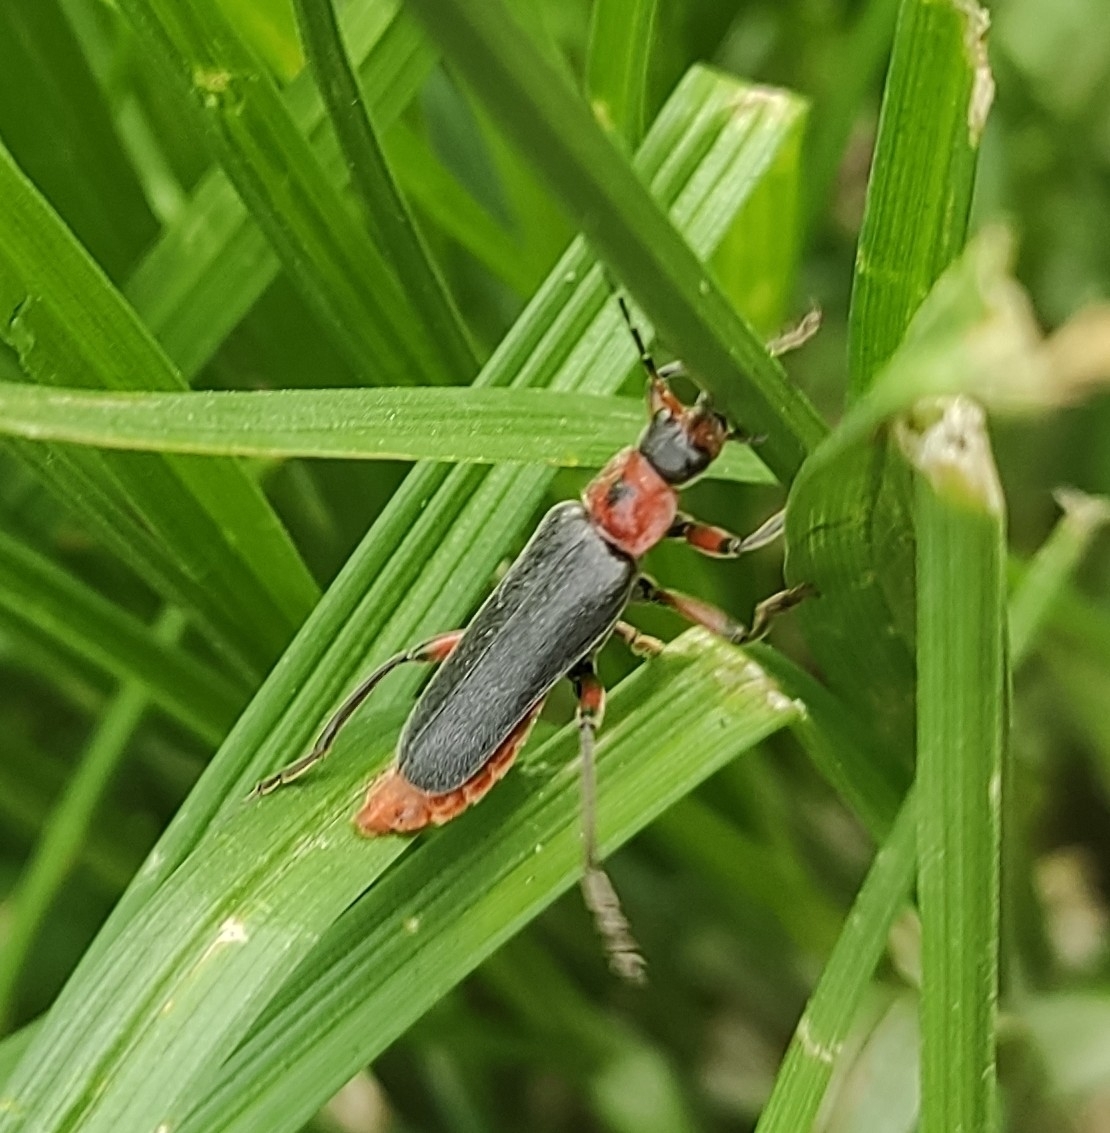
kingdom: Animalia
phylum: Arthropoda
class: Insecta
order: Coleoptera
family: Cantharidae
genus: Cantharis
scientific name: Cantharis rustica
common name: Soldier beetle
